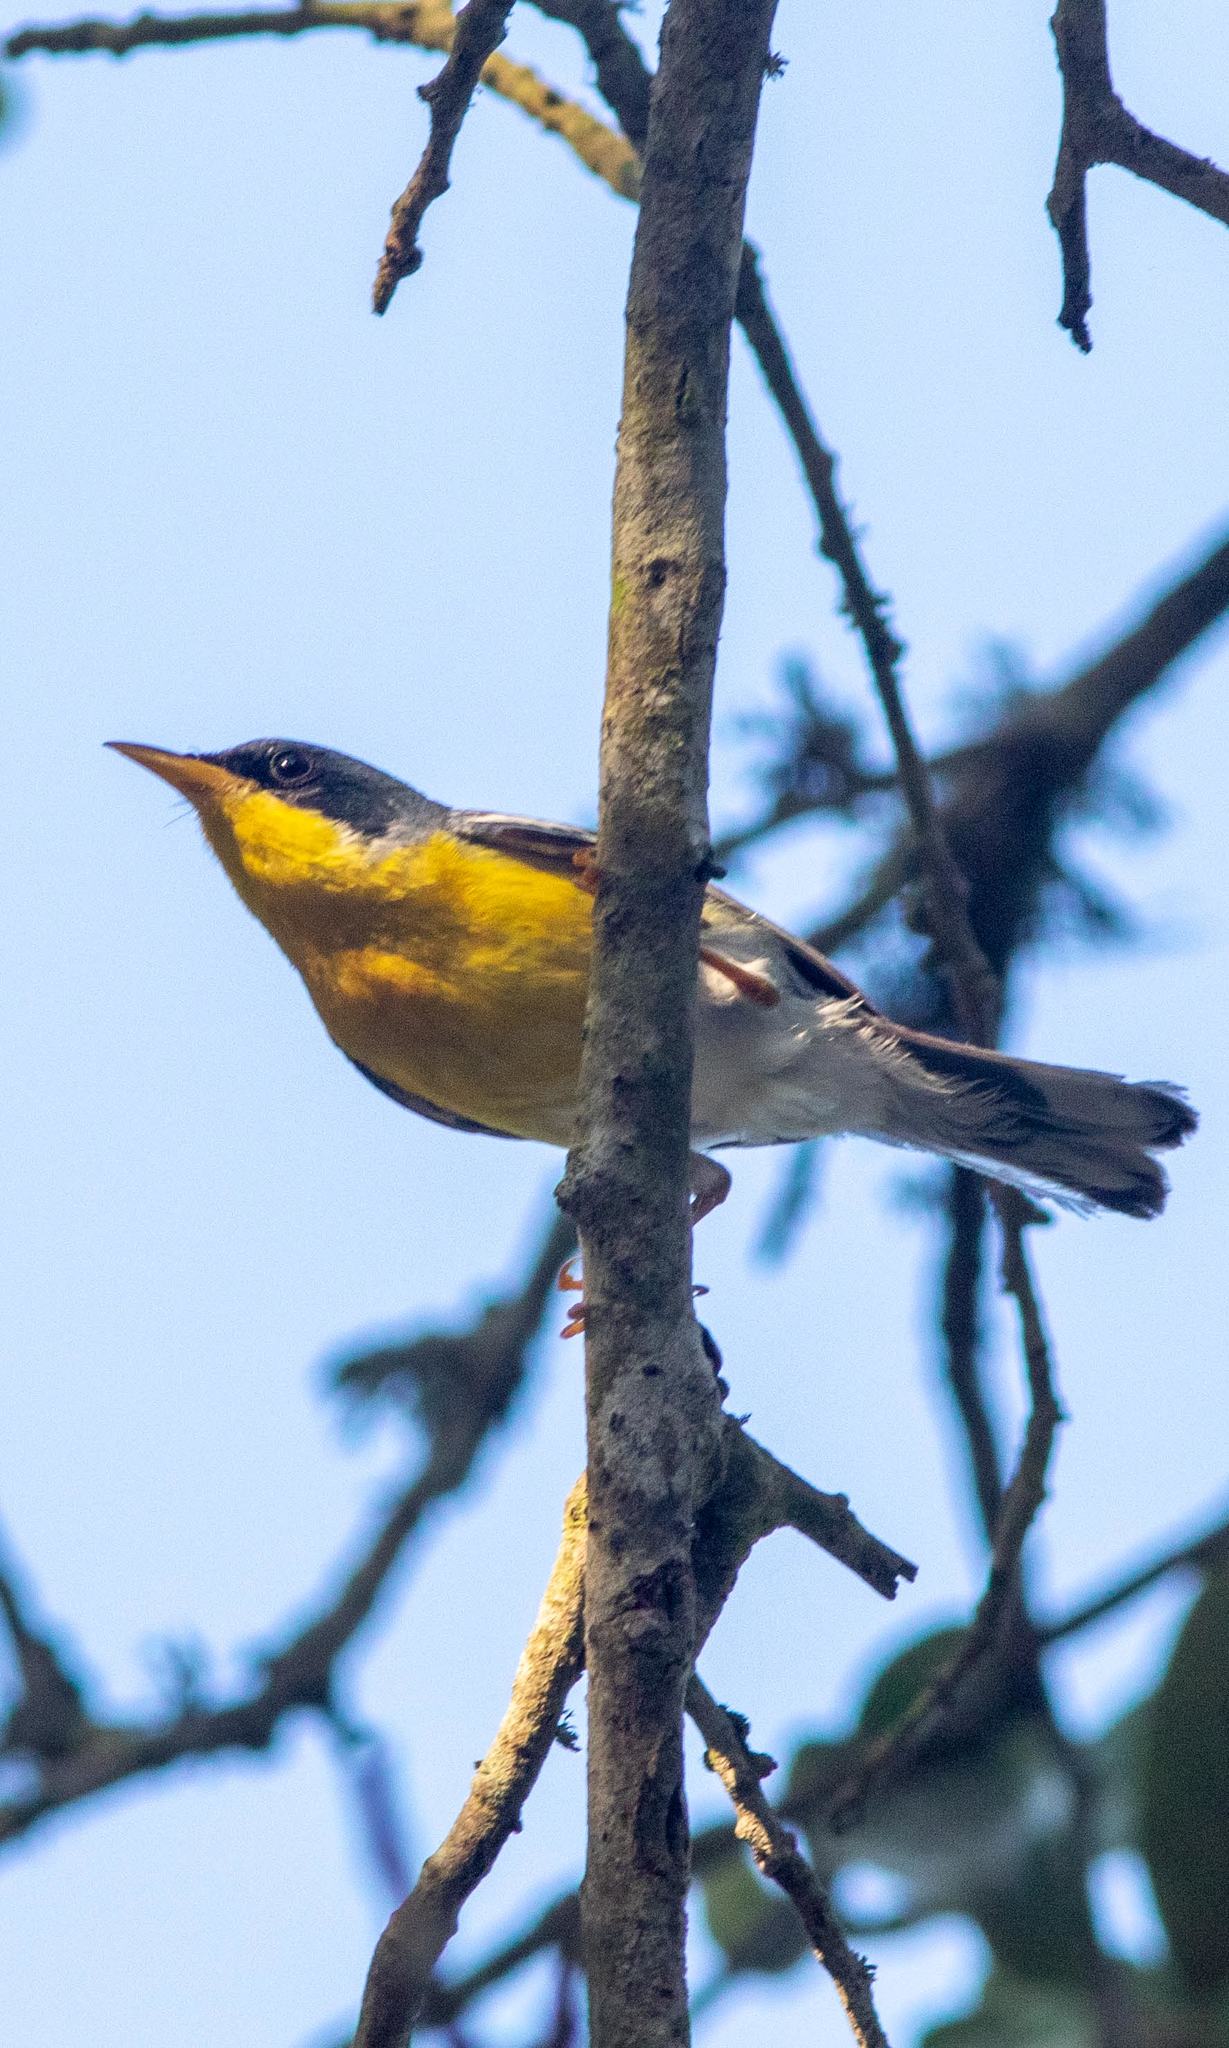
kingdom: Animalia
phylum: Chordata
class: Aves
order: Passeriformes
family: Parulidae
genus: Setophaga
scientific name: Setophaga pitiayumi
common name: Tropical parula
